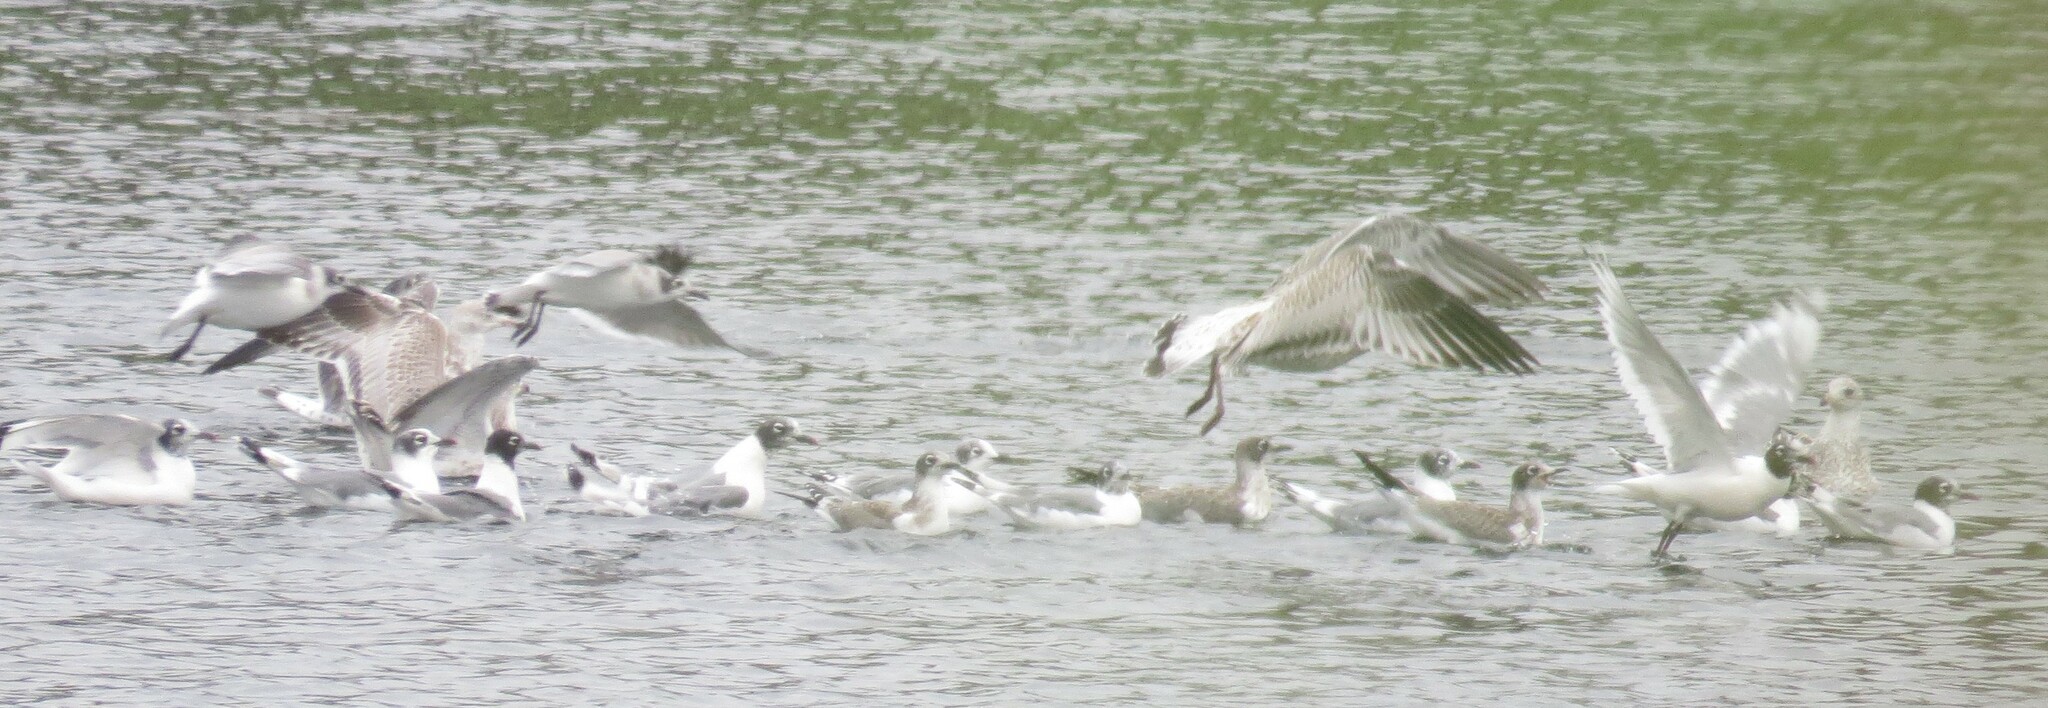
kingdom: Animalia
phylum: Chordata
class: Aves
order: Charadriiformes
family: Laridae
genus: Leucophaeus
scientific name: Leucophaeus pipixcan
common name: Franklin's gull
